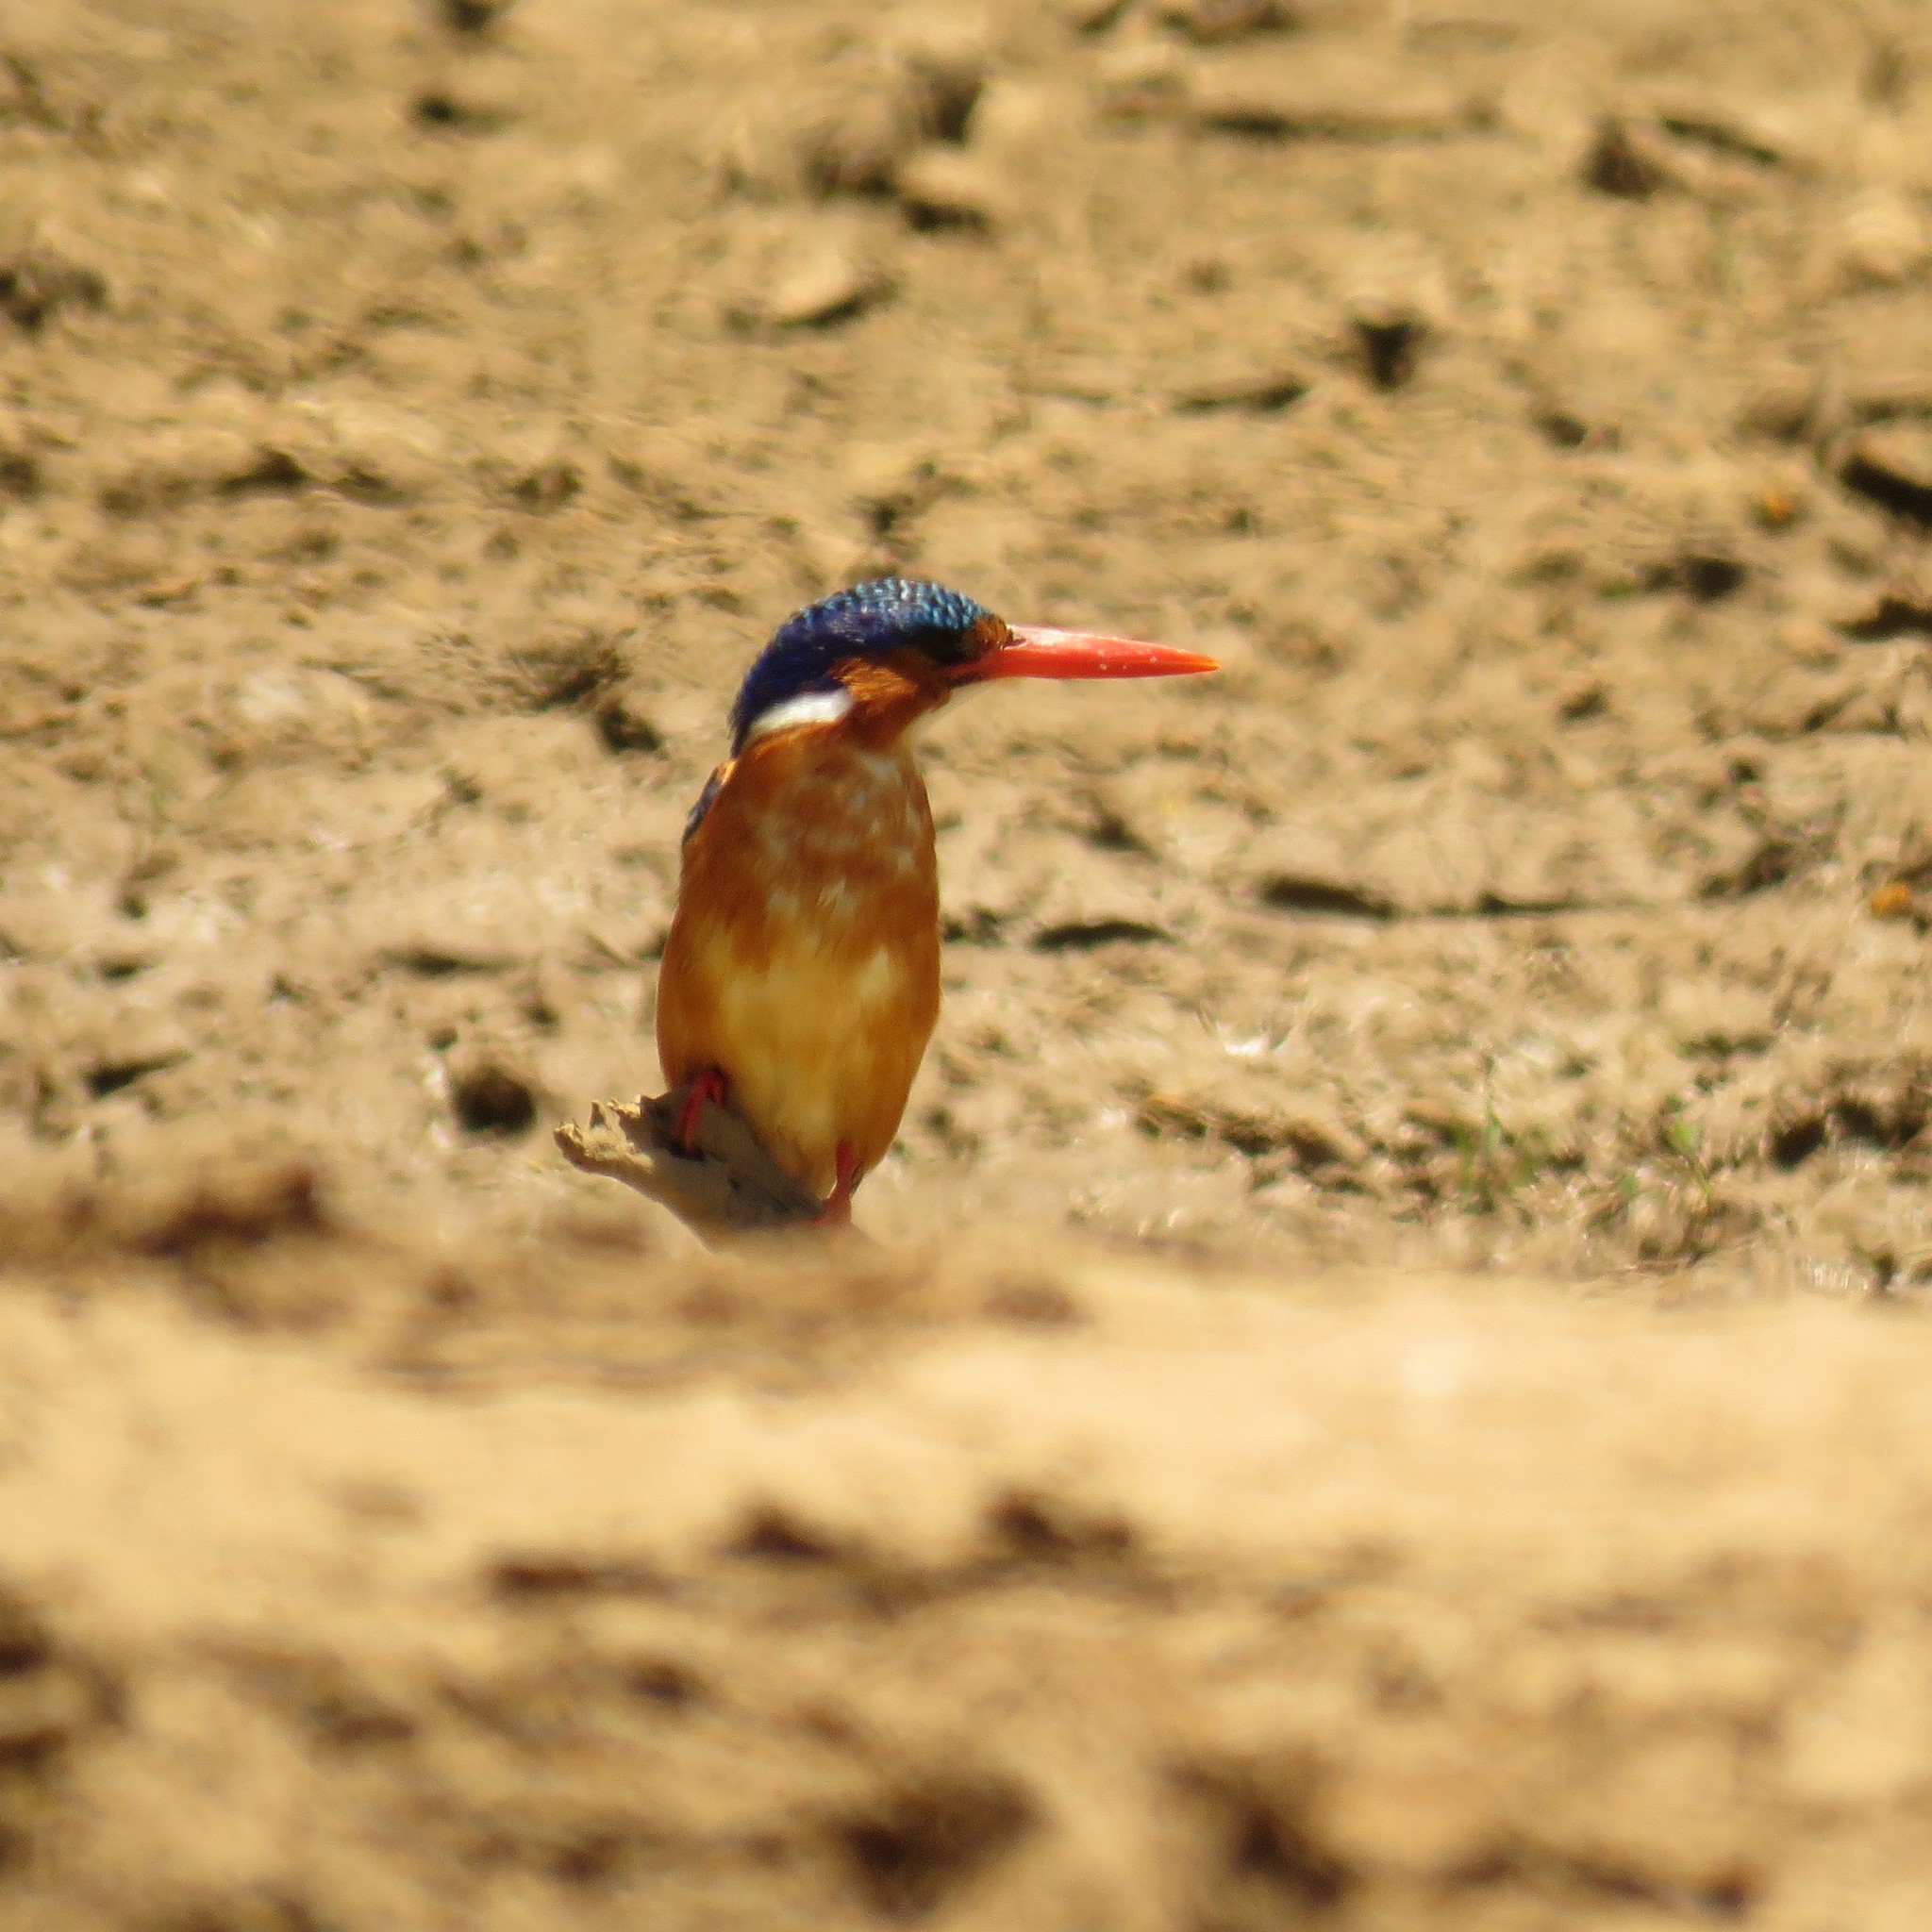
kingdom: Animalia
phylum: Chordata
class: Aves
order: Coraciiformes
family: Alcedinidae
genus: Corythornis
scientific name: Corythornis cristatus
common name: Malachite kingfisher
